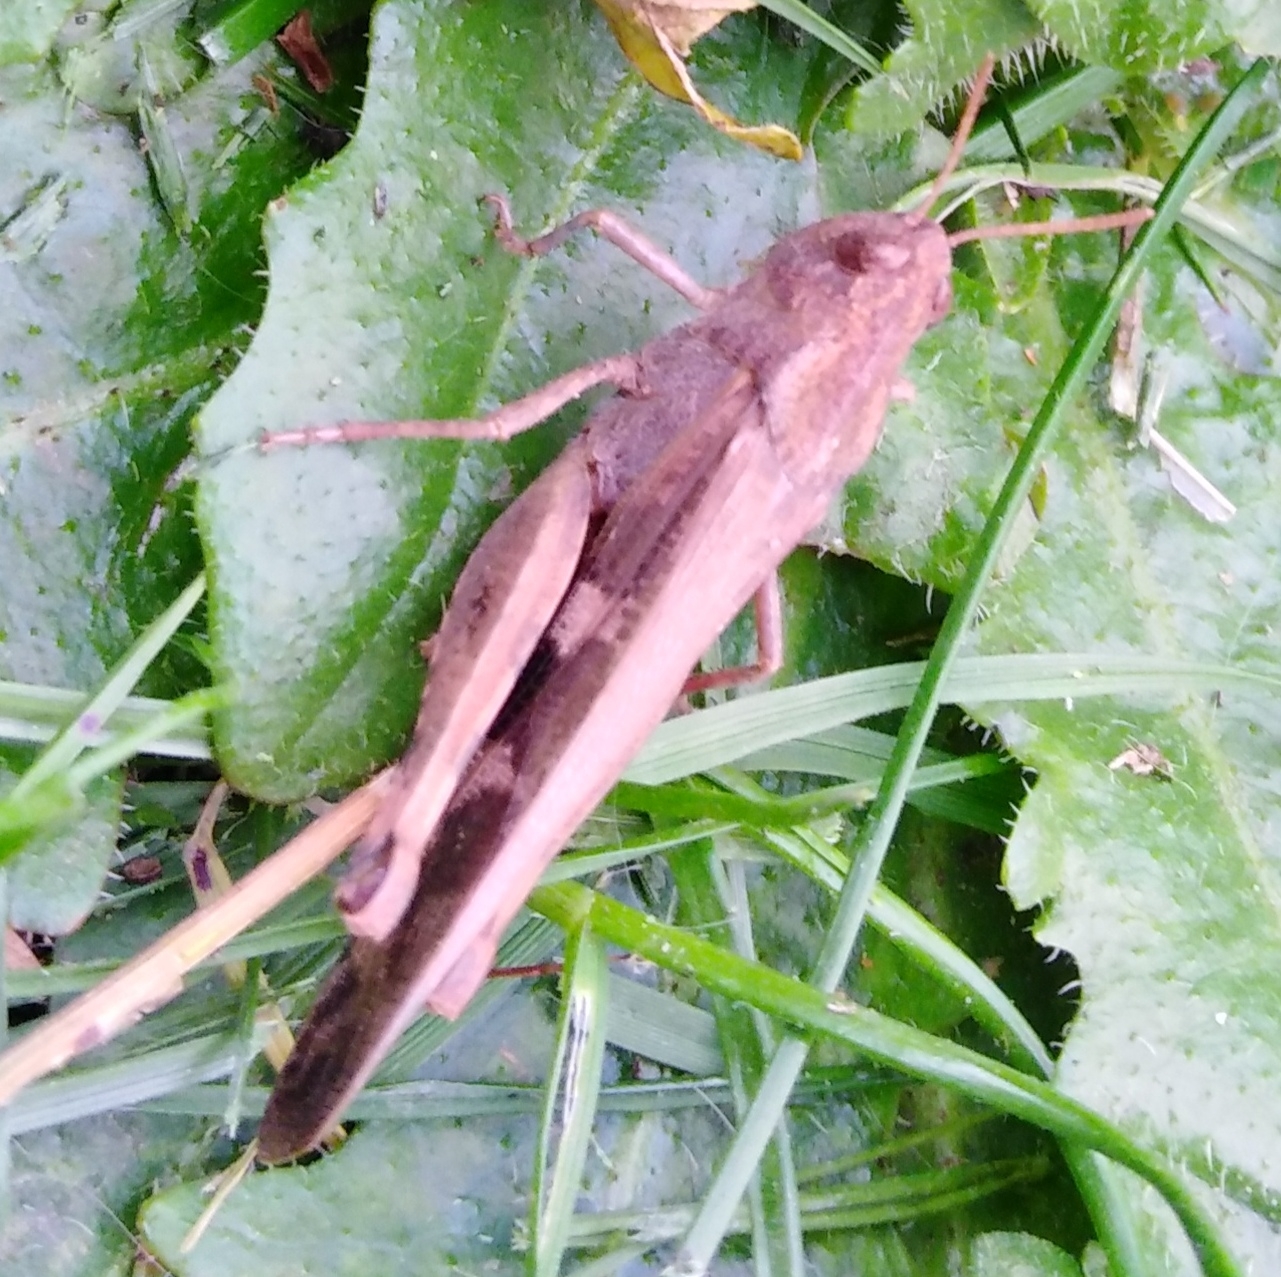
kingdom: Animalia
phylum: Arthropoda
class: Insecta
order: Orthoptera
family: Acrididae
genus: Aiolopus
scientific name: Aiolopus strepens
